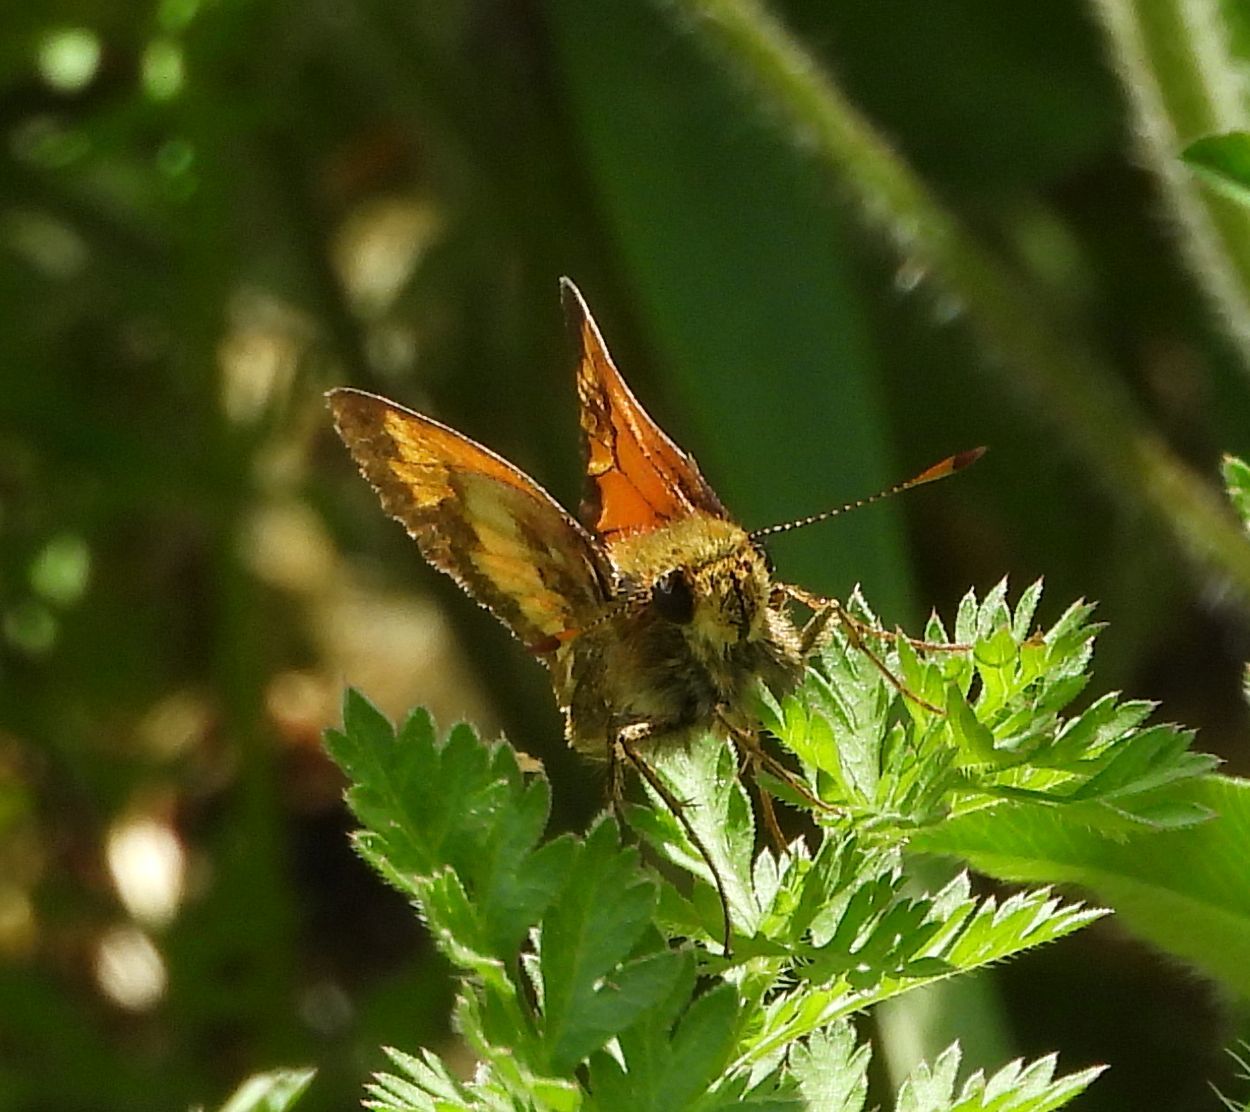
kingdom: Animalia
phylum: Arthropoda
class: Insecta
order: Lepidoptera
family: Hesperiidae
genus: Lon
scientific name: Lon hobomok
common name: Hobomok skipper
